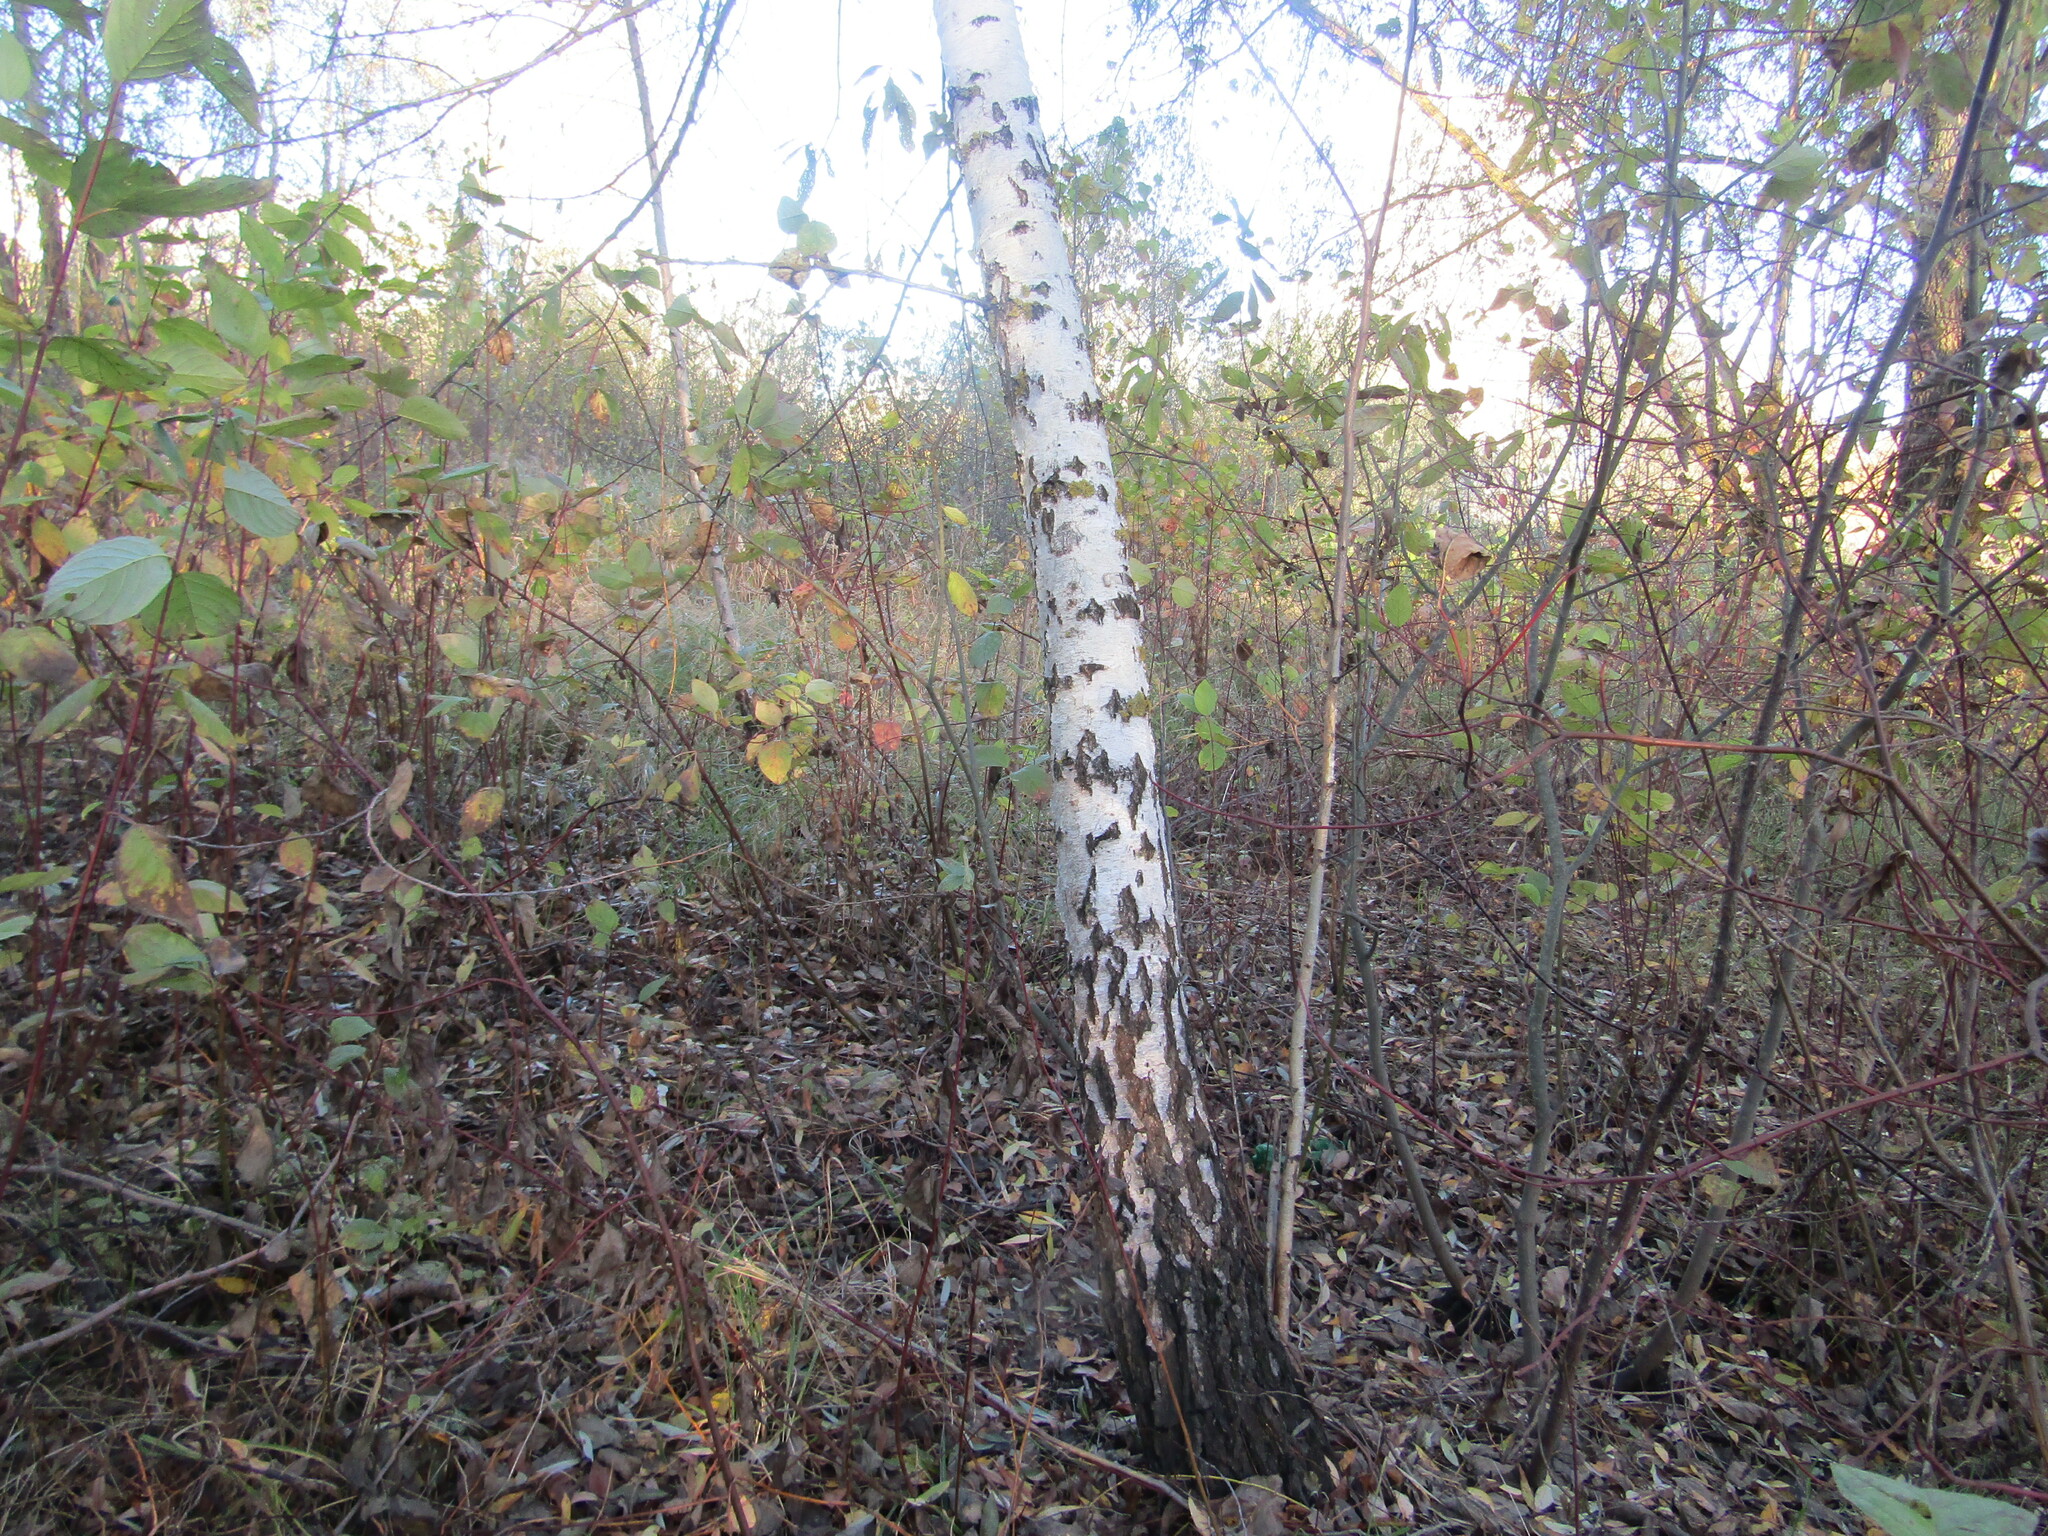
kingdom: Plantae
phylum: Tracheophyta
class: Magnoliopsida
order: Fagales
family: Betulaceae
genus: Betula
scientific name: Betula pendula
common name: Silver birch
